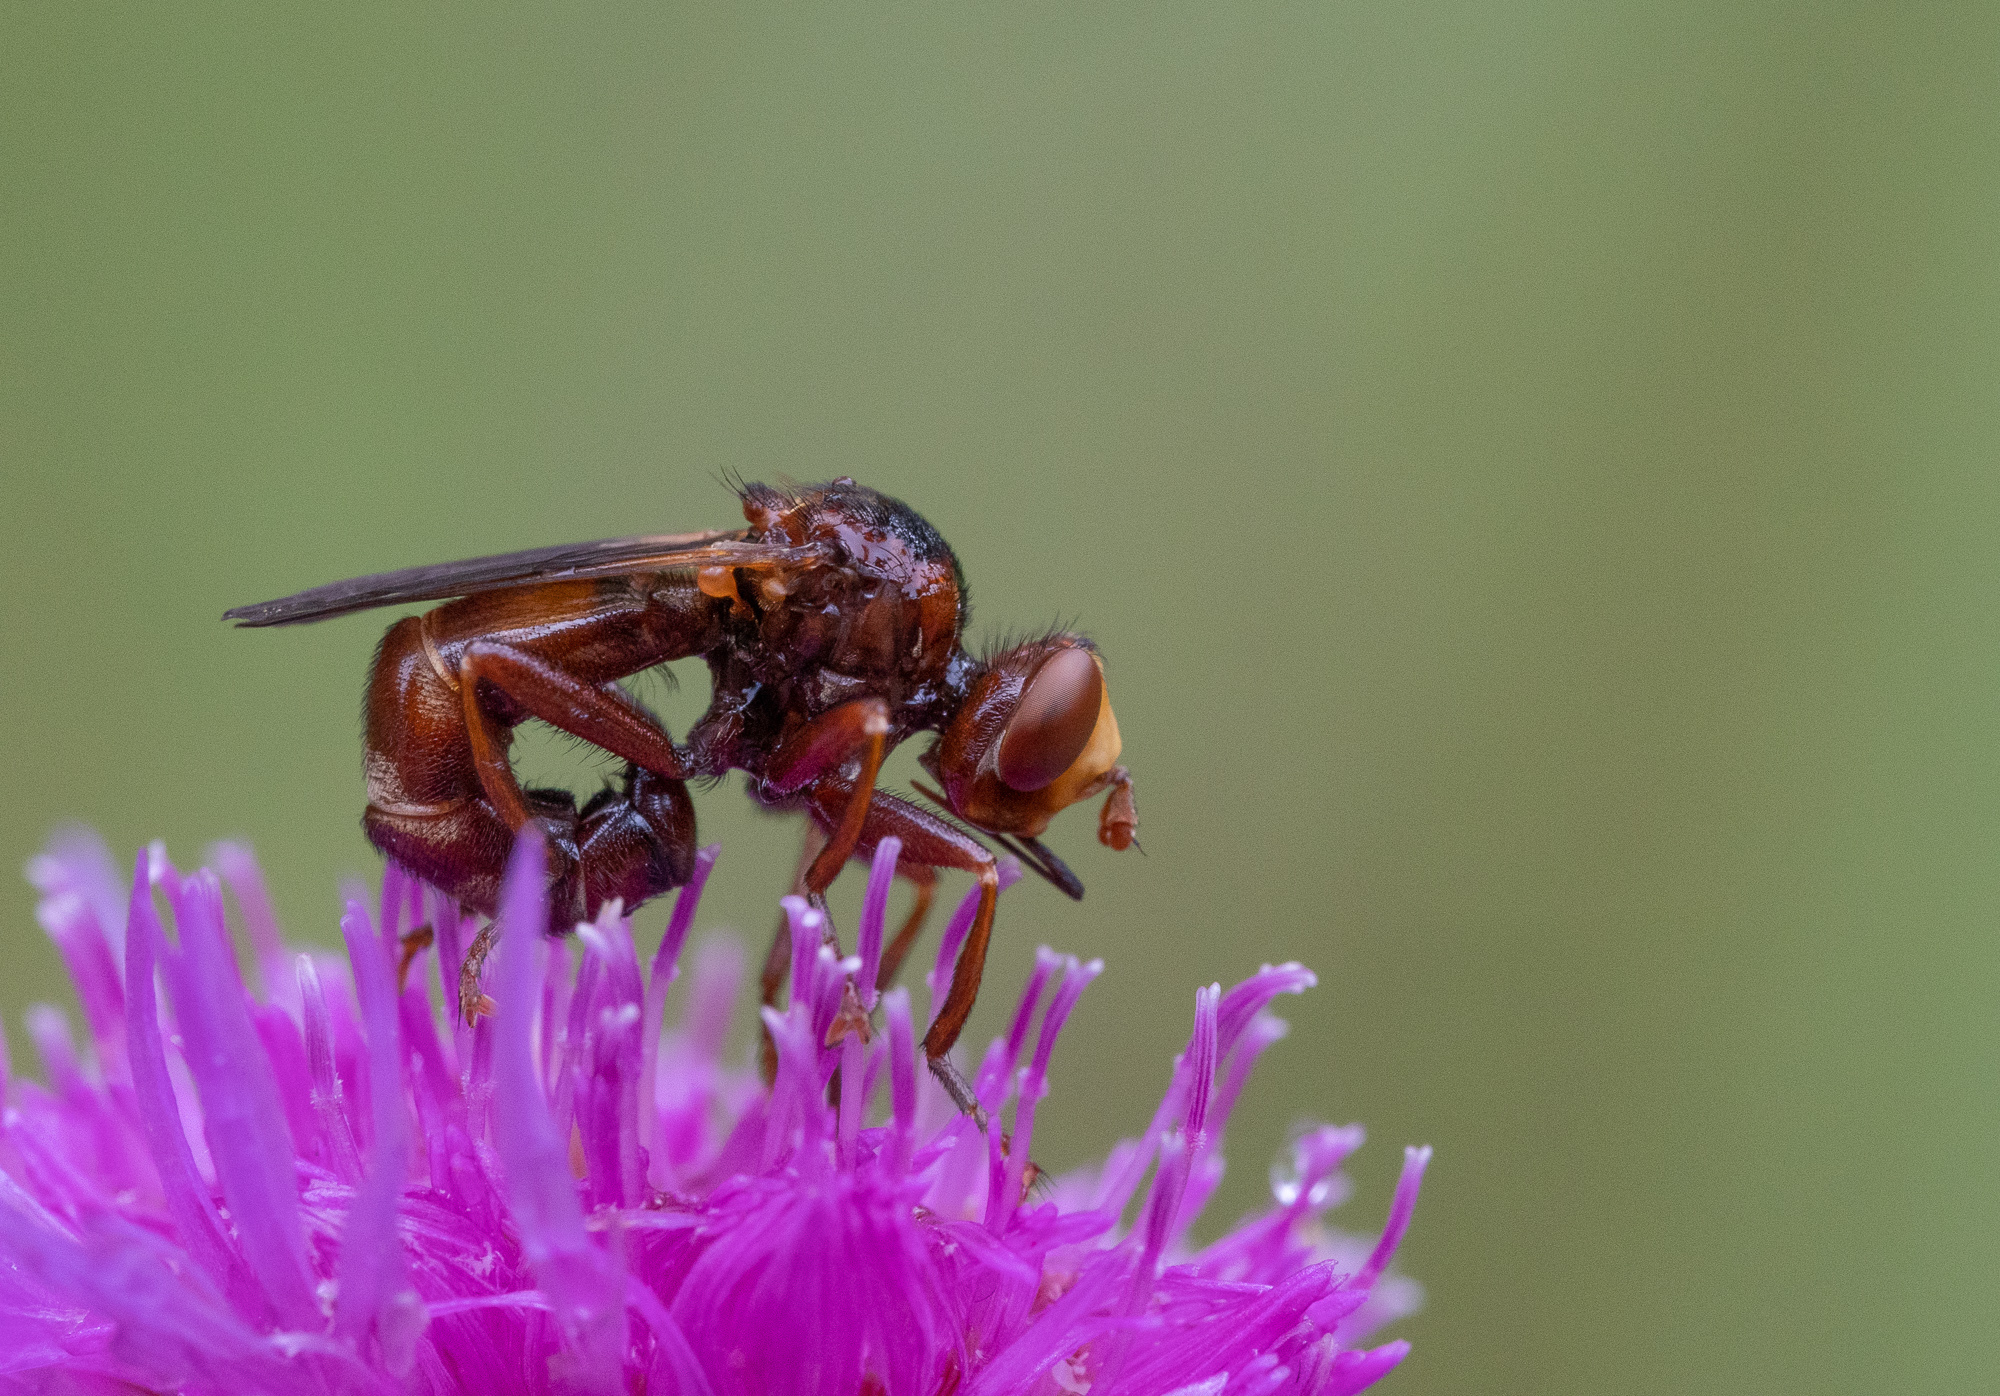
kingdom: Animalia
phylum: Arthropoda
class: Insecta
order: Diptera
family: Conopidae
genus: Sicus
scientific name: Sicus ferrugineus
